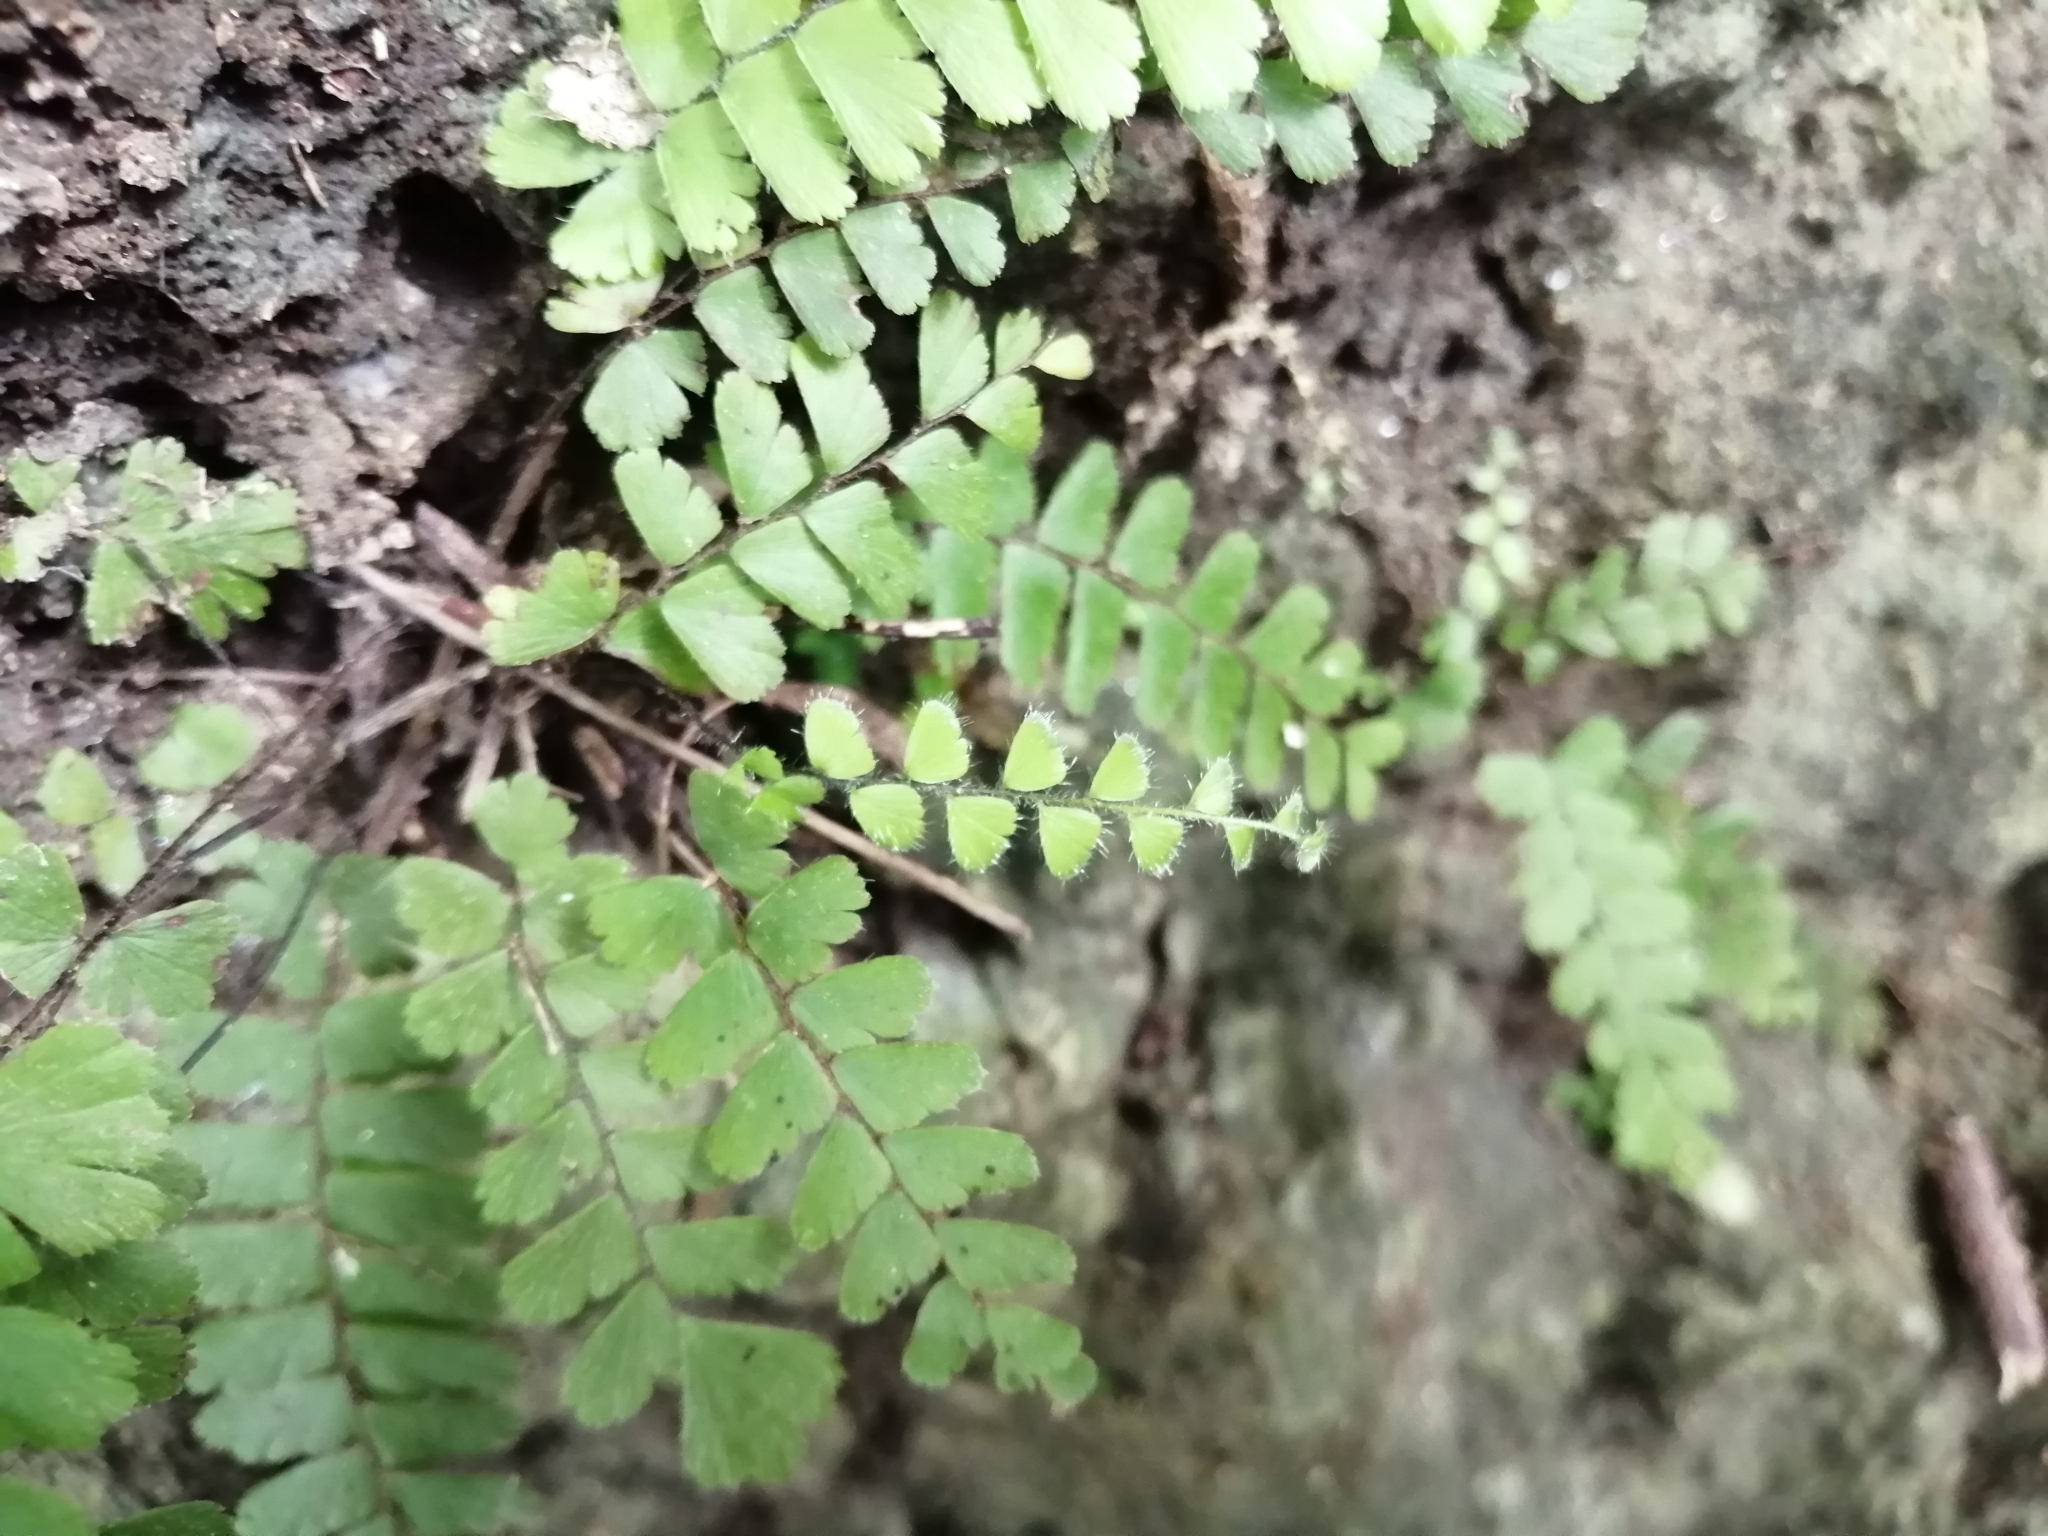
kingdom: Plantae
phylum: Tracheophyta
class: Polypodiopsida
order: Polypodiales
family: Pteridaceae
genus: Adiantum
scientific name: Adiantum caudatum
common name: Tailed maidenhair
